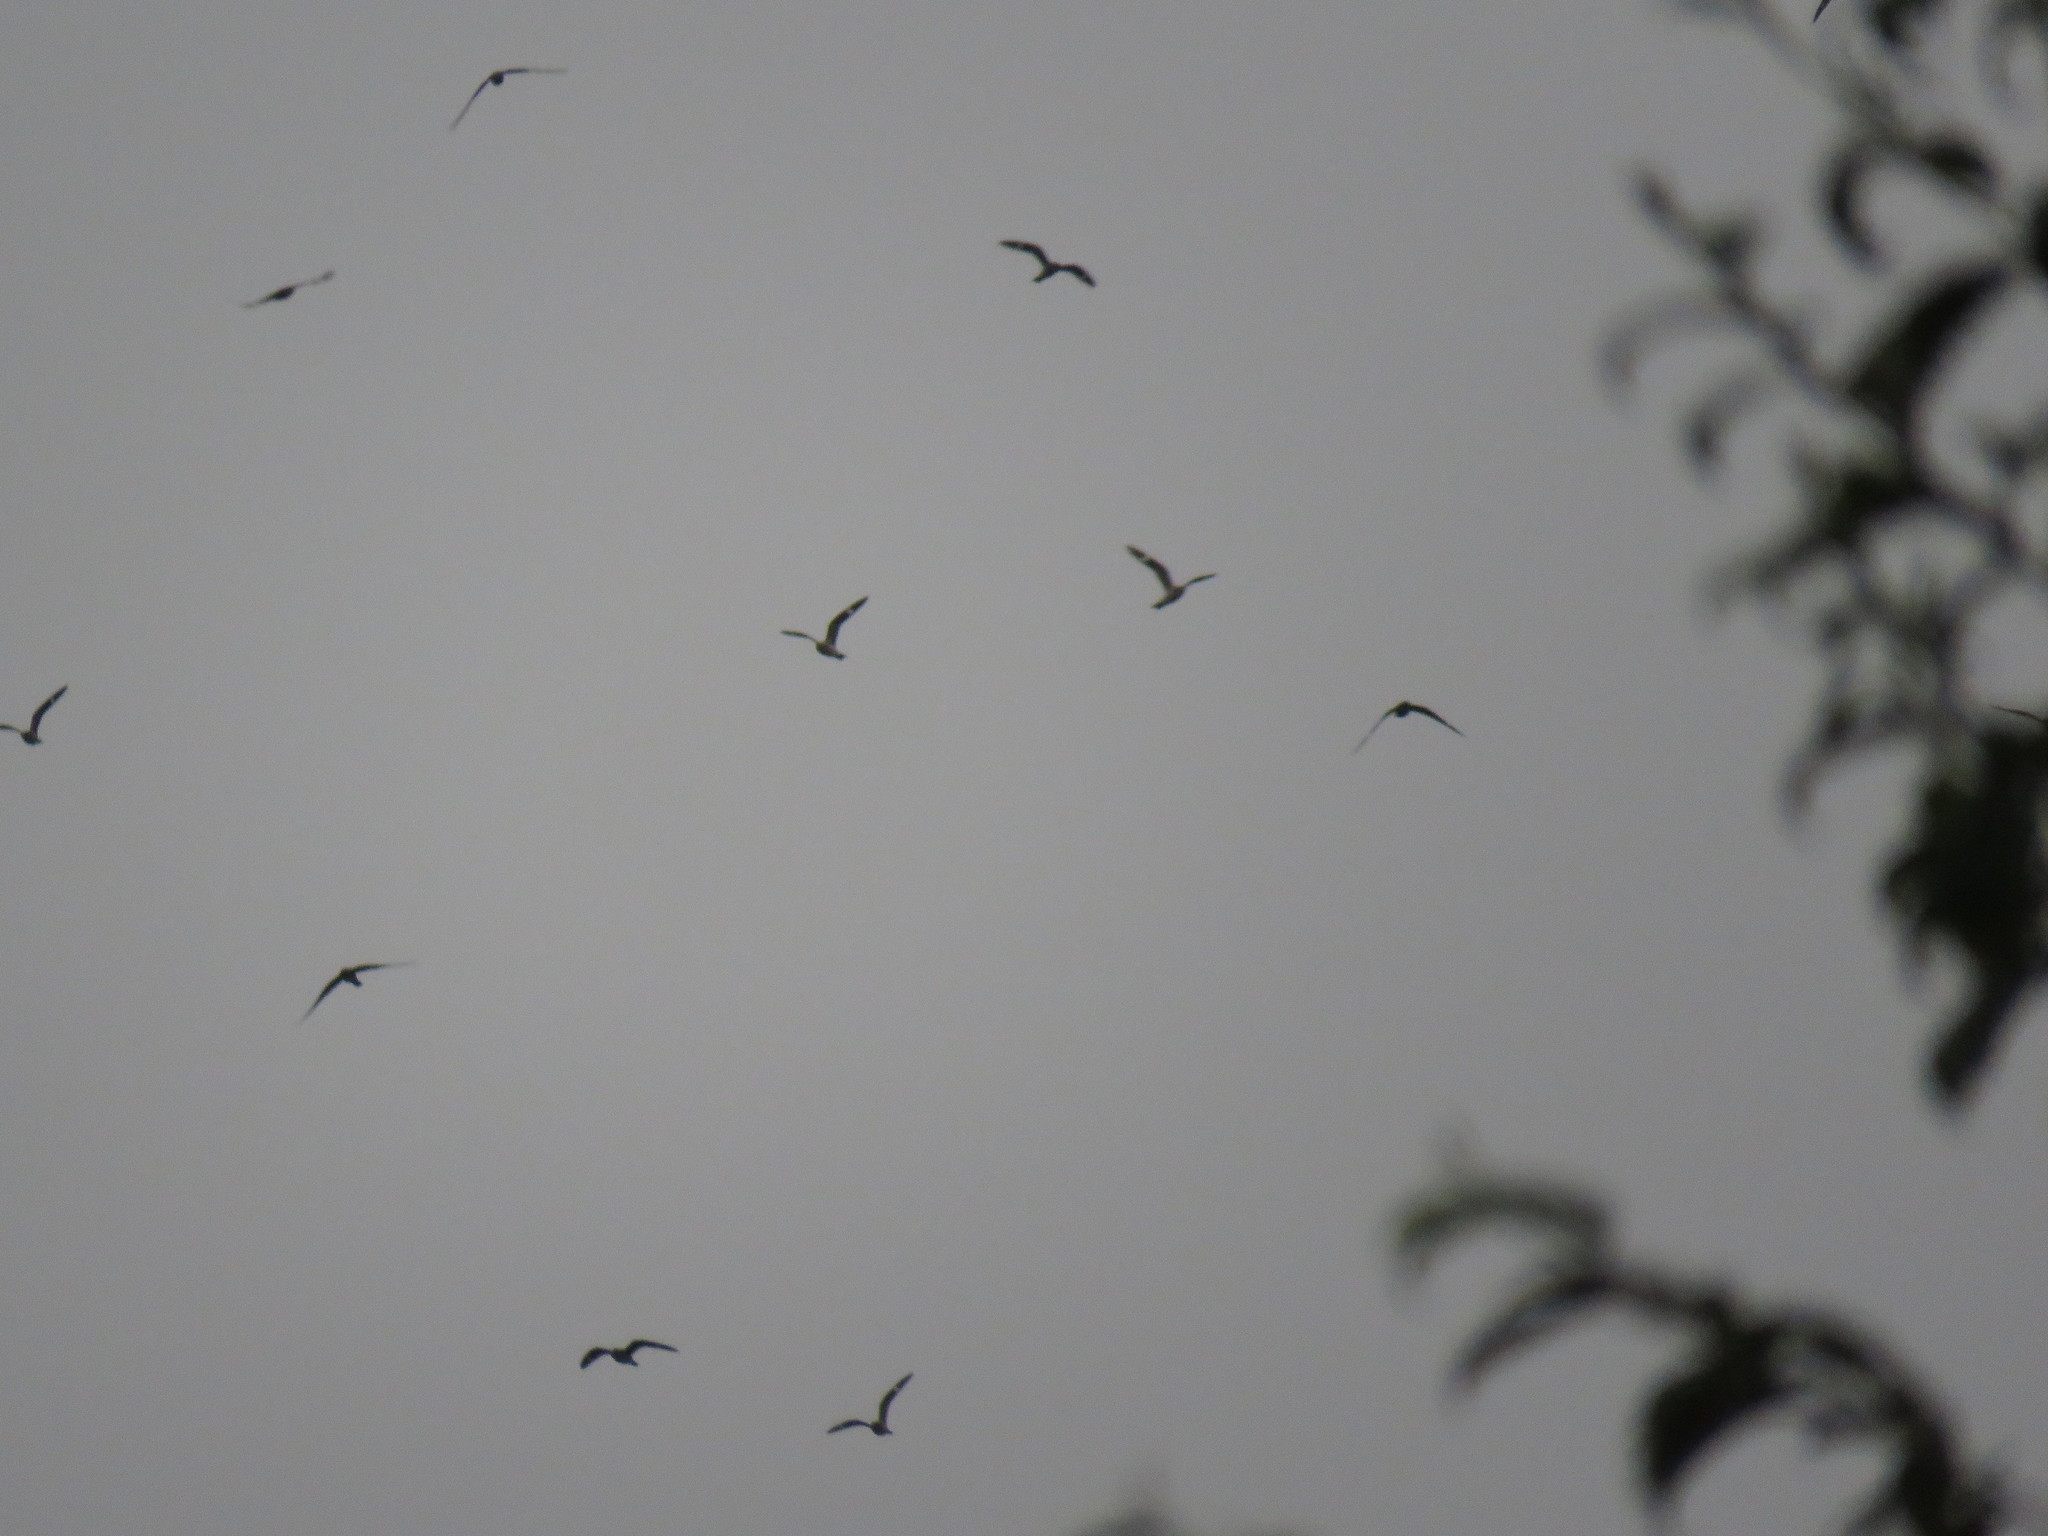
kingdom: Animalia
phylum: Chordata
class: Aves
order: Caprimulgiformes
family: Caprimulgidae
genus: Chordeiles
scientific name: Chordeiles minor
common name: Common nighthawk
